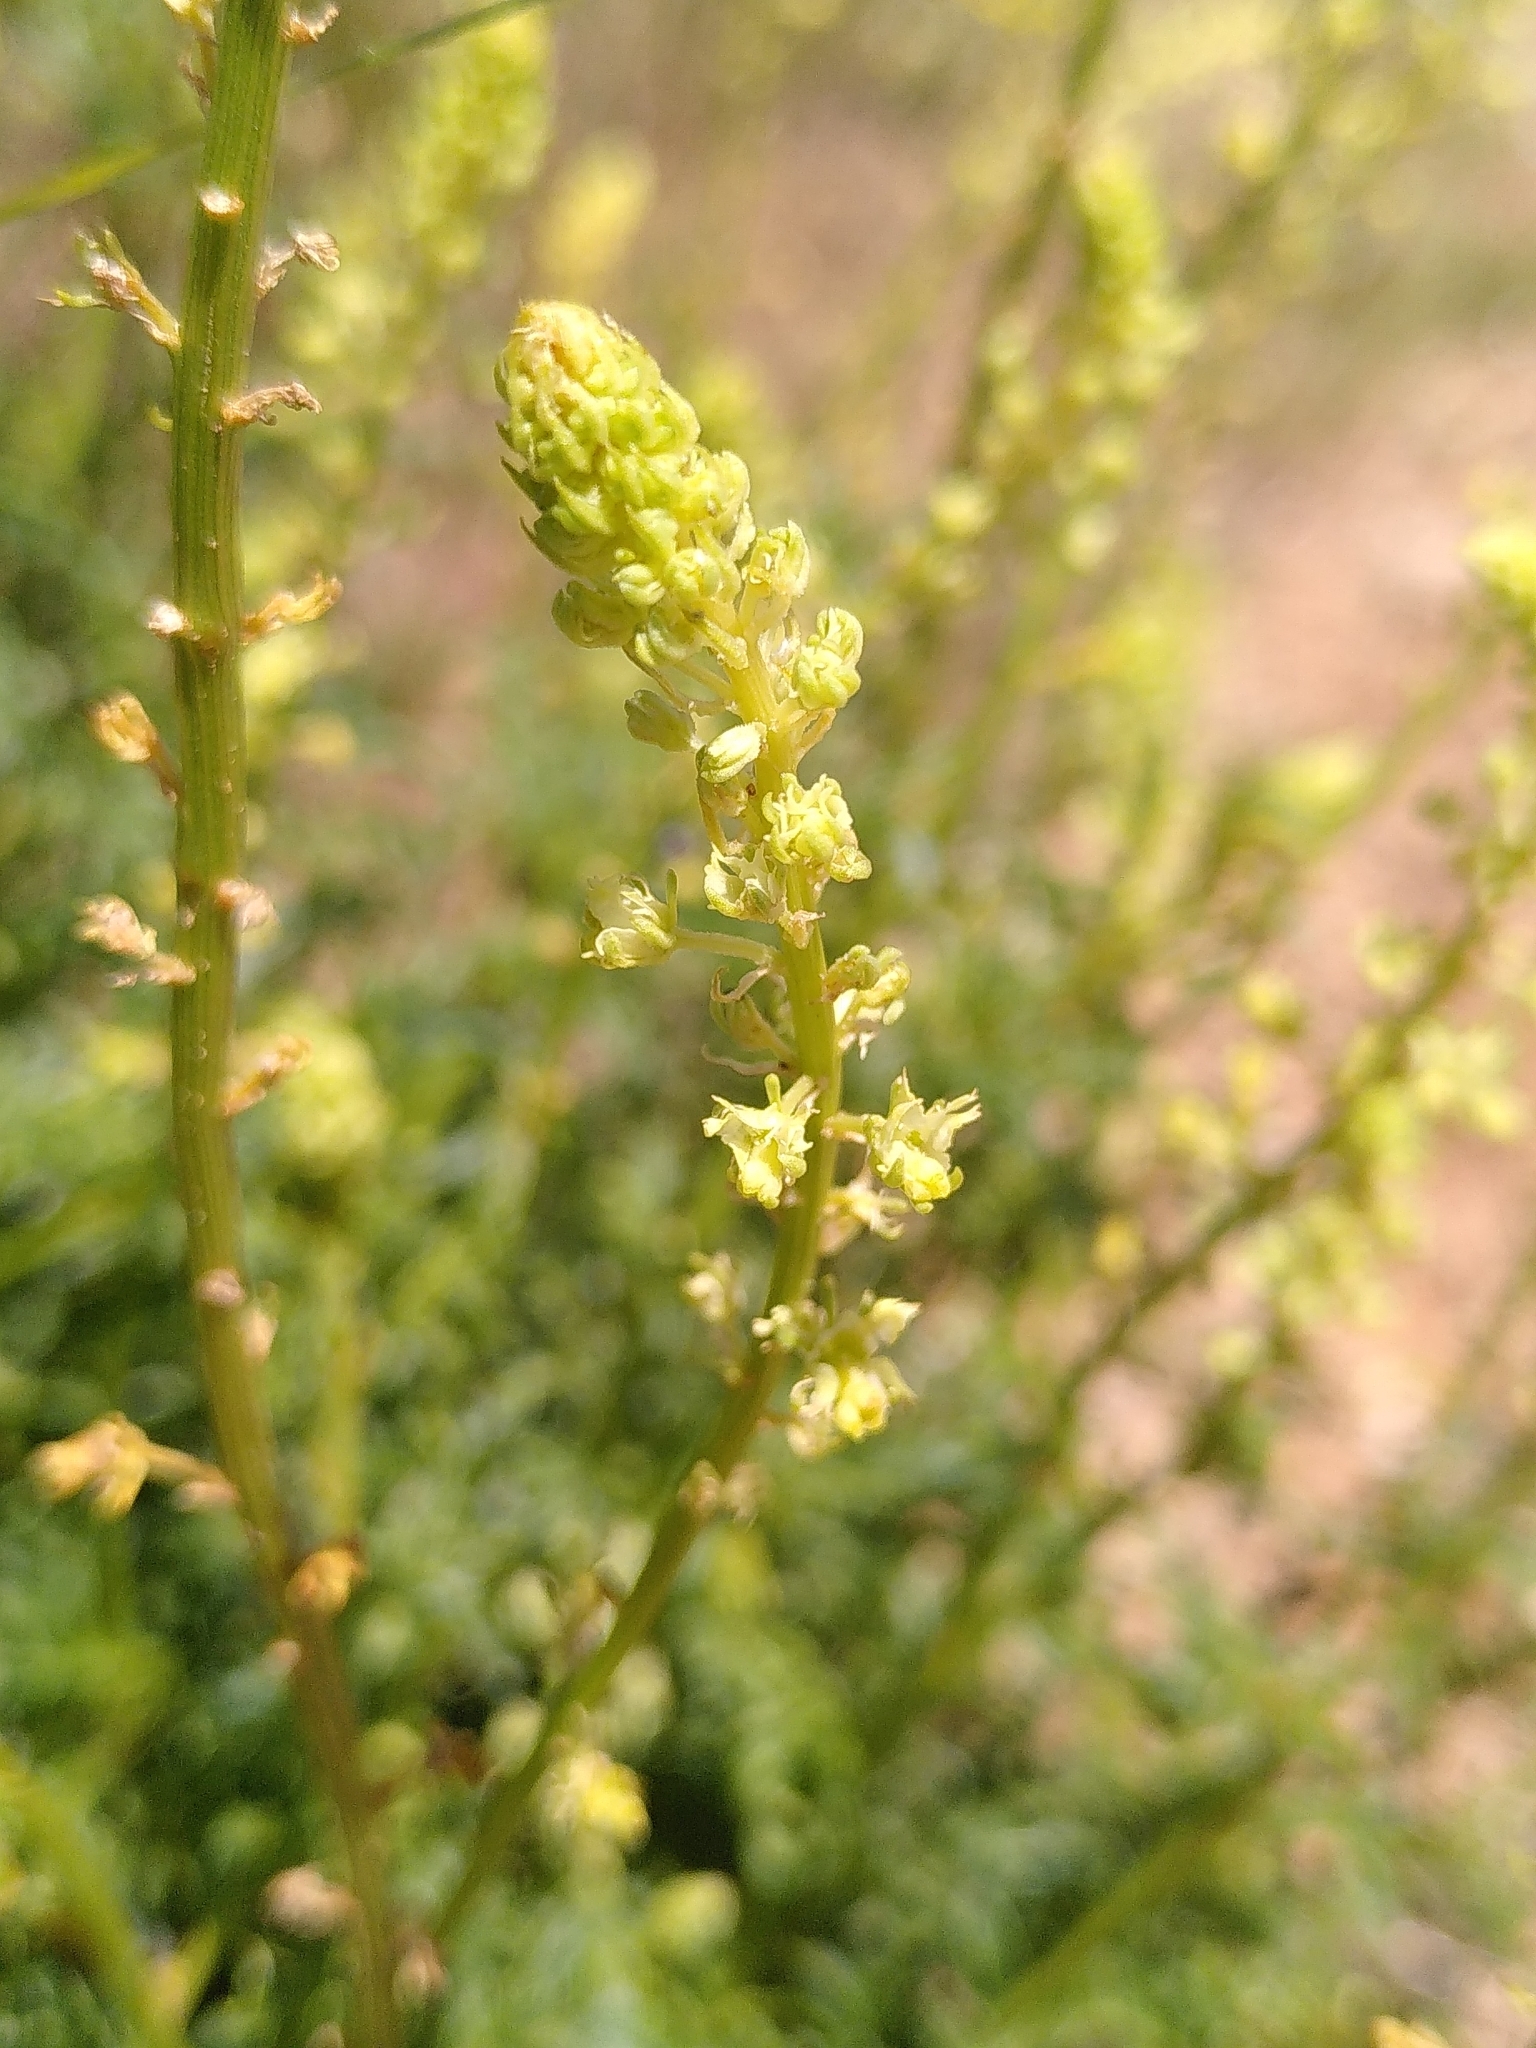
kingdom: Plantae
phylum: Tracheophyta
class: Magnoliopsida
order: Brassicales
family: Resedaceae
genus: Reseda
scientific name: Reseda lutea
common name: Wild mignonette
